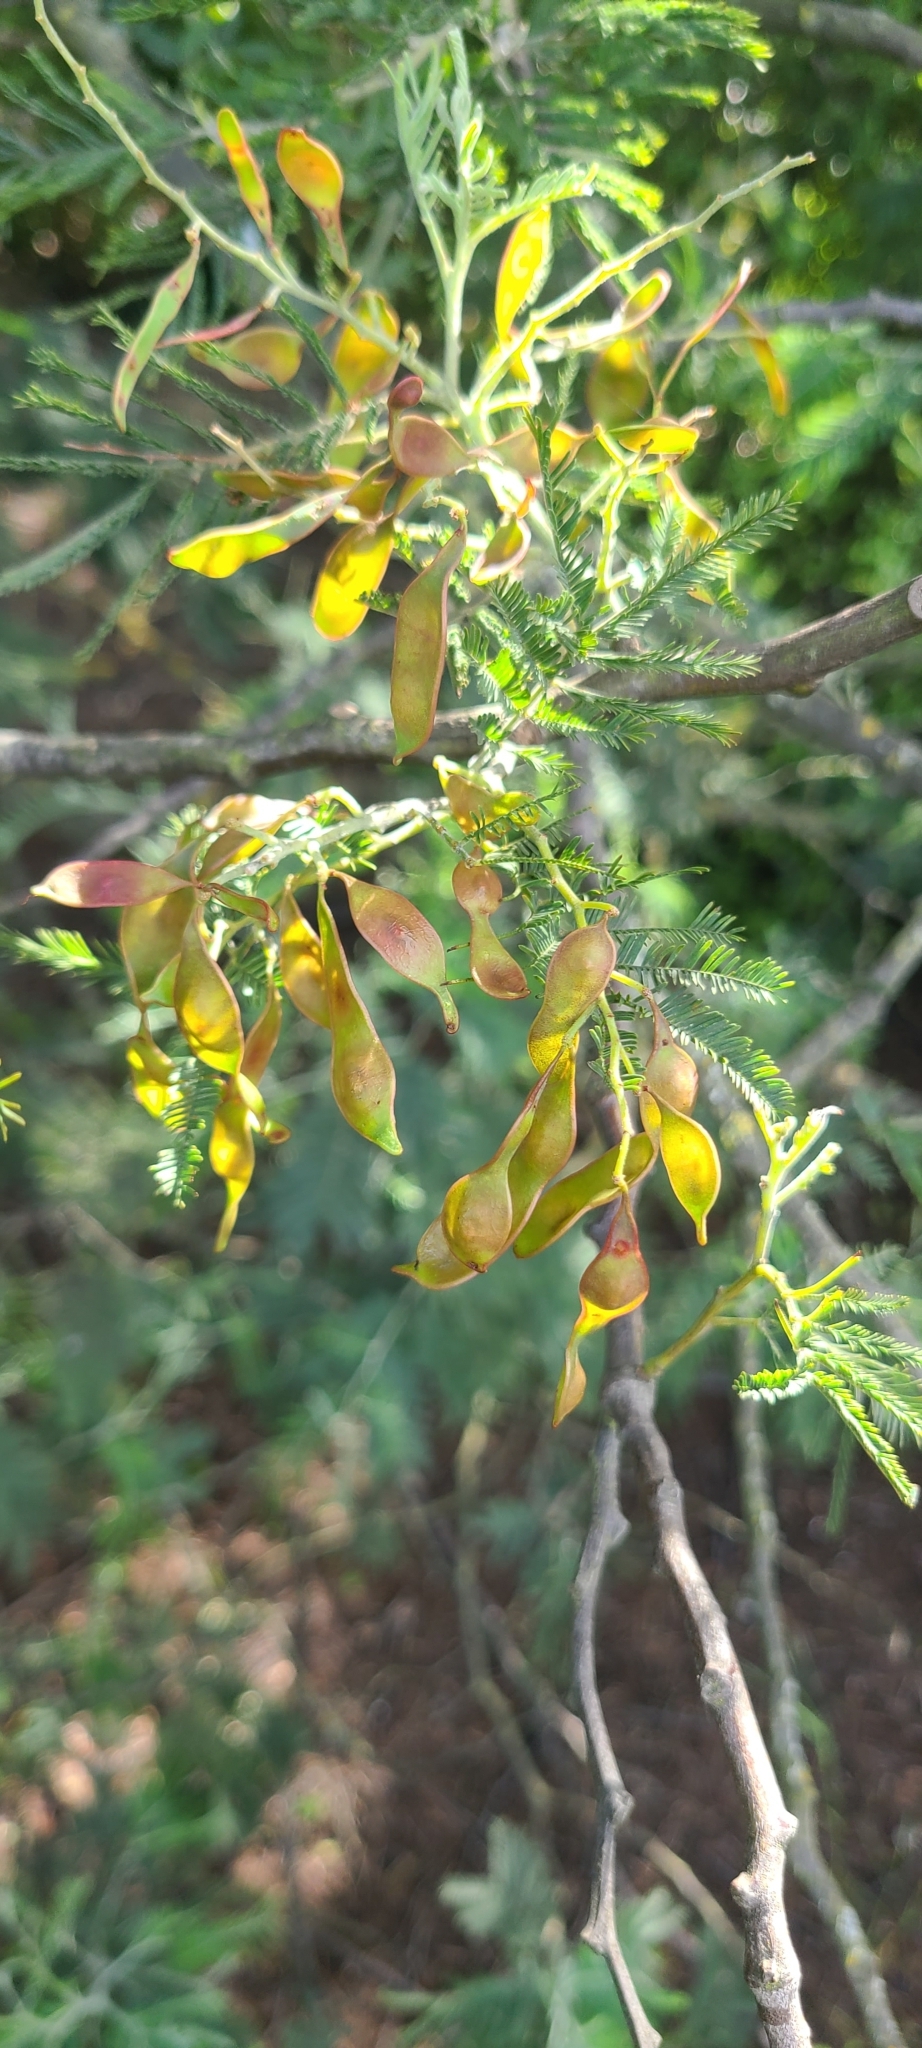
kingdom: Plantae
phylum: Tracheophyta
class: Magnoliopsida
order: Fabales
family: Fabaceae
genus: Acacia
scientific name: Acacia dealbata
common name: Silver wattle
